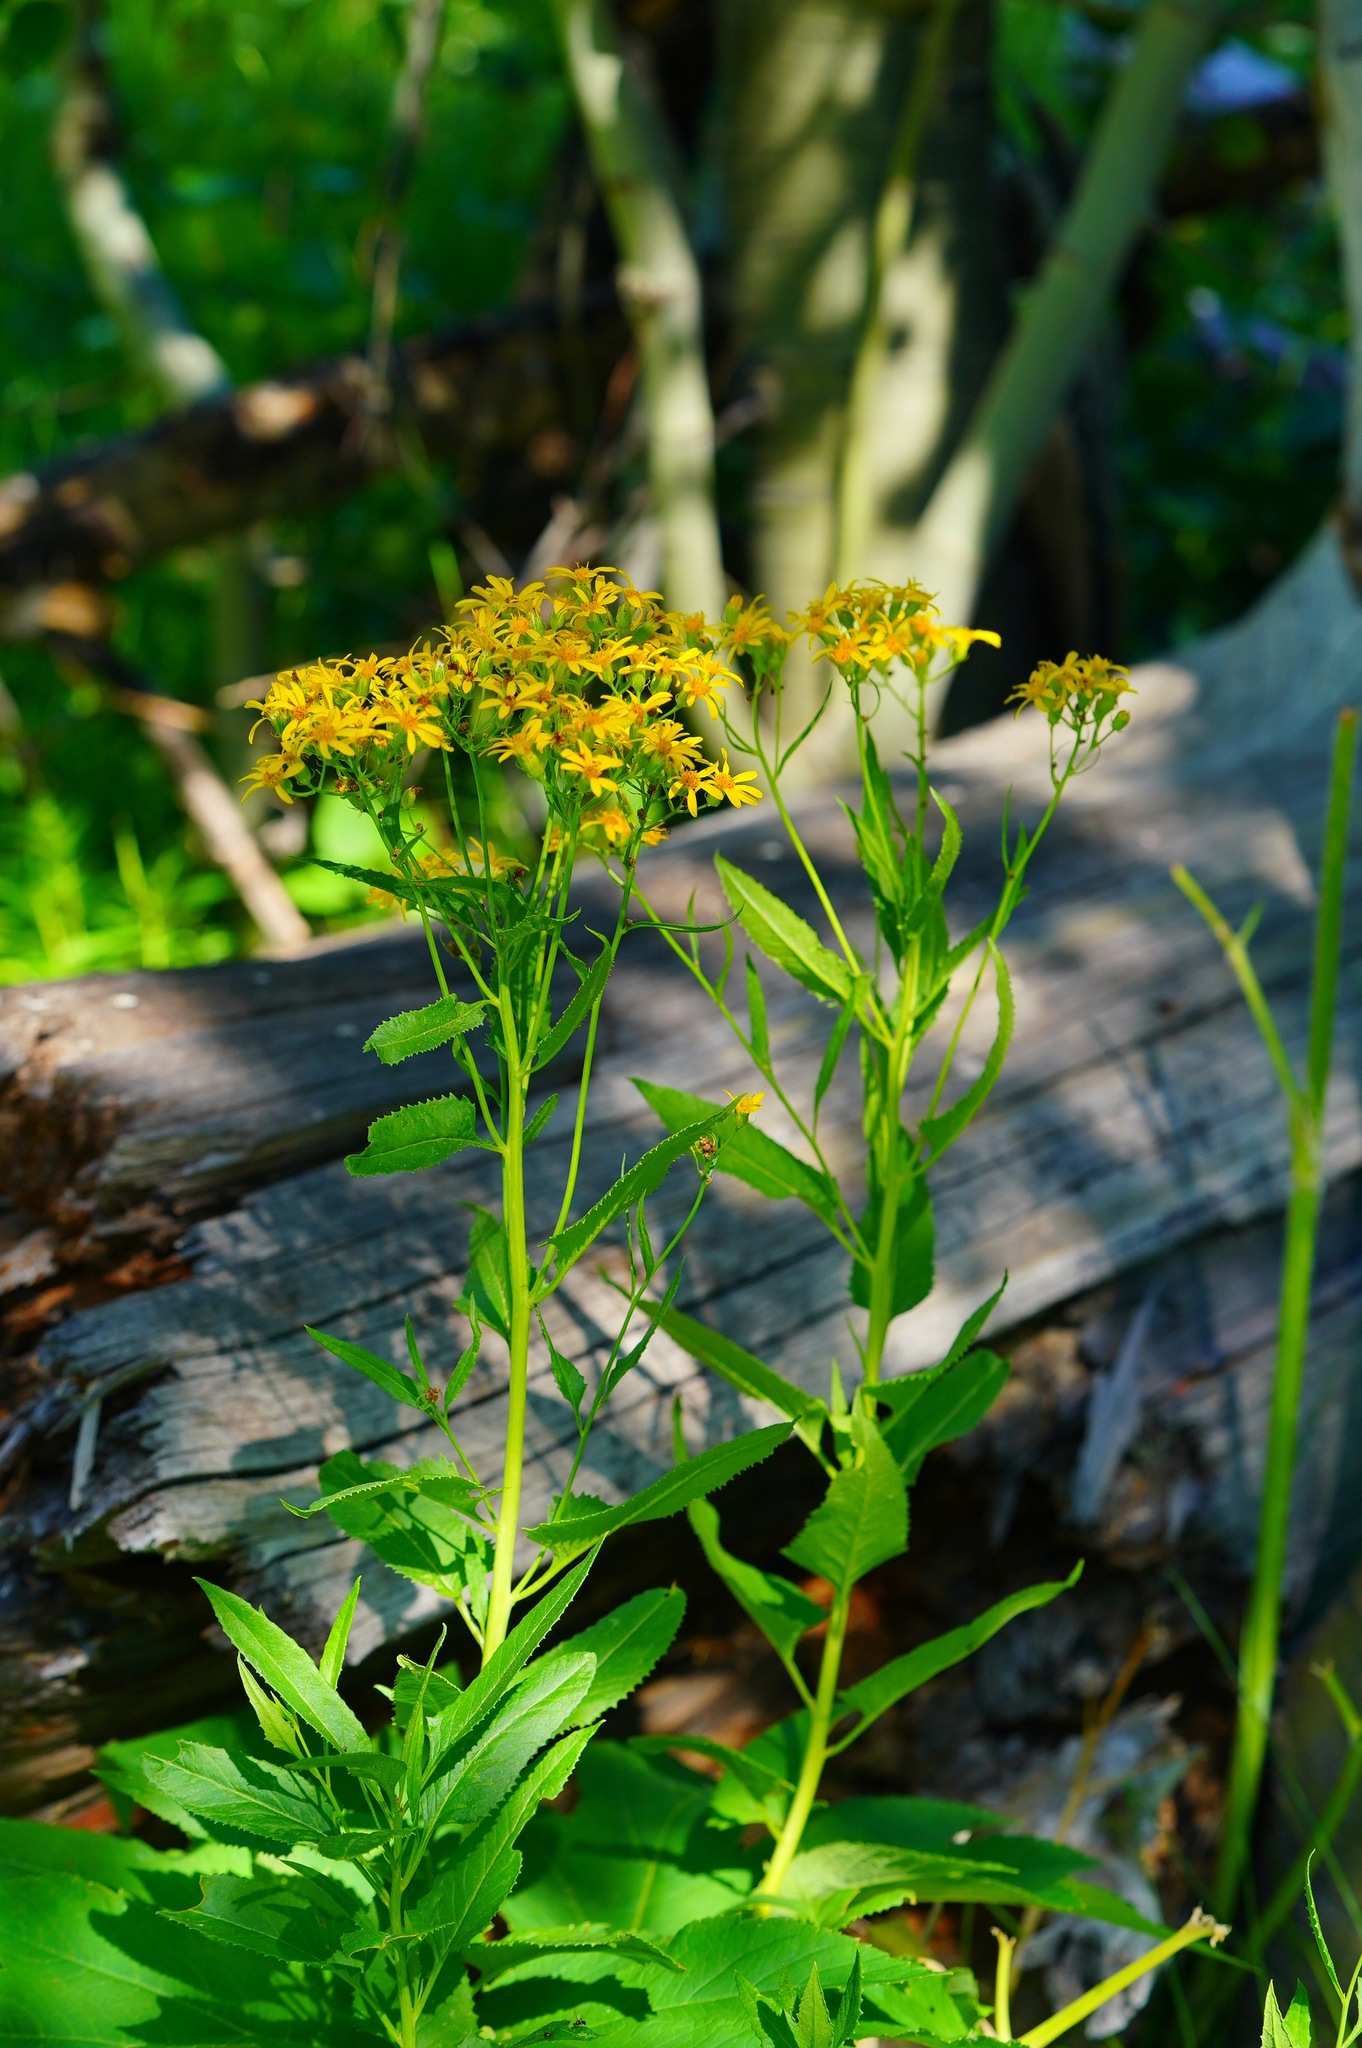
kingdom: Plantae
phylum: Tracheophyta
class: Magnoliopsida
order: Asterales
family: Asteraceae
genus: Senecio
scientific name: Senecio triangularis
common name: Arrowleaf butterweed
